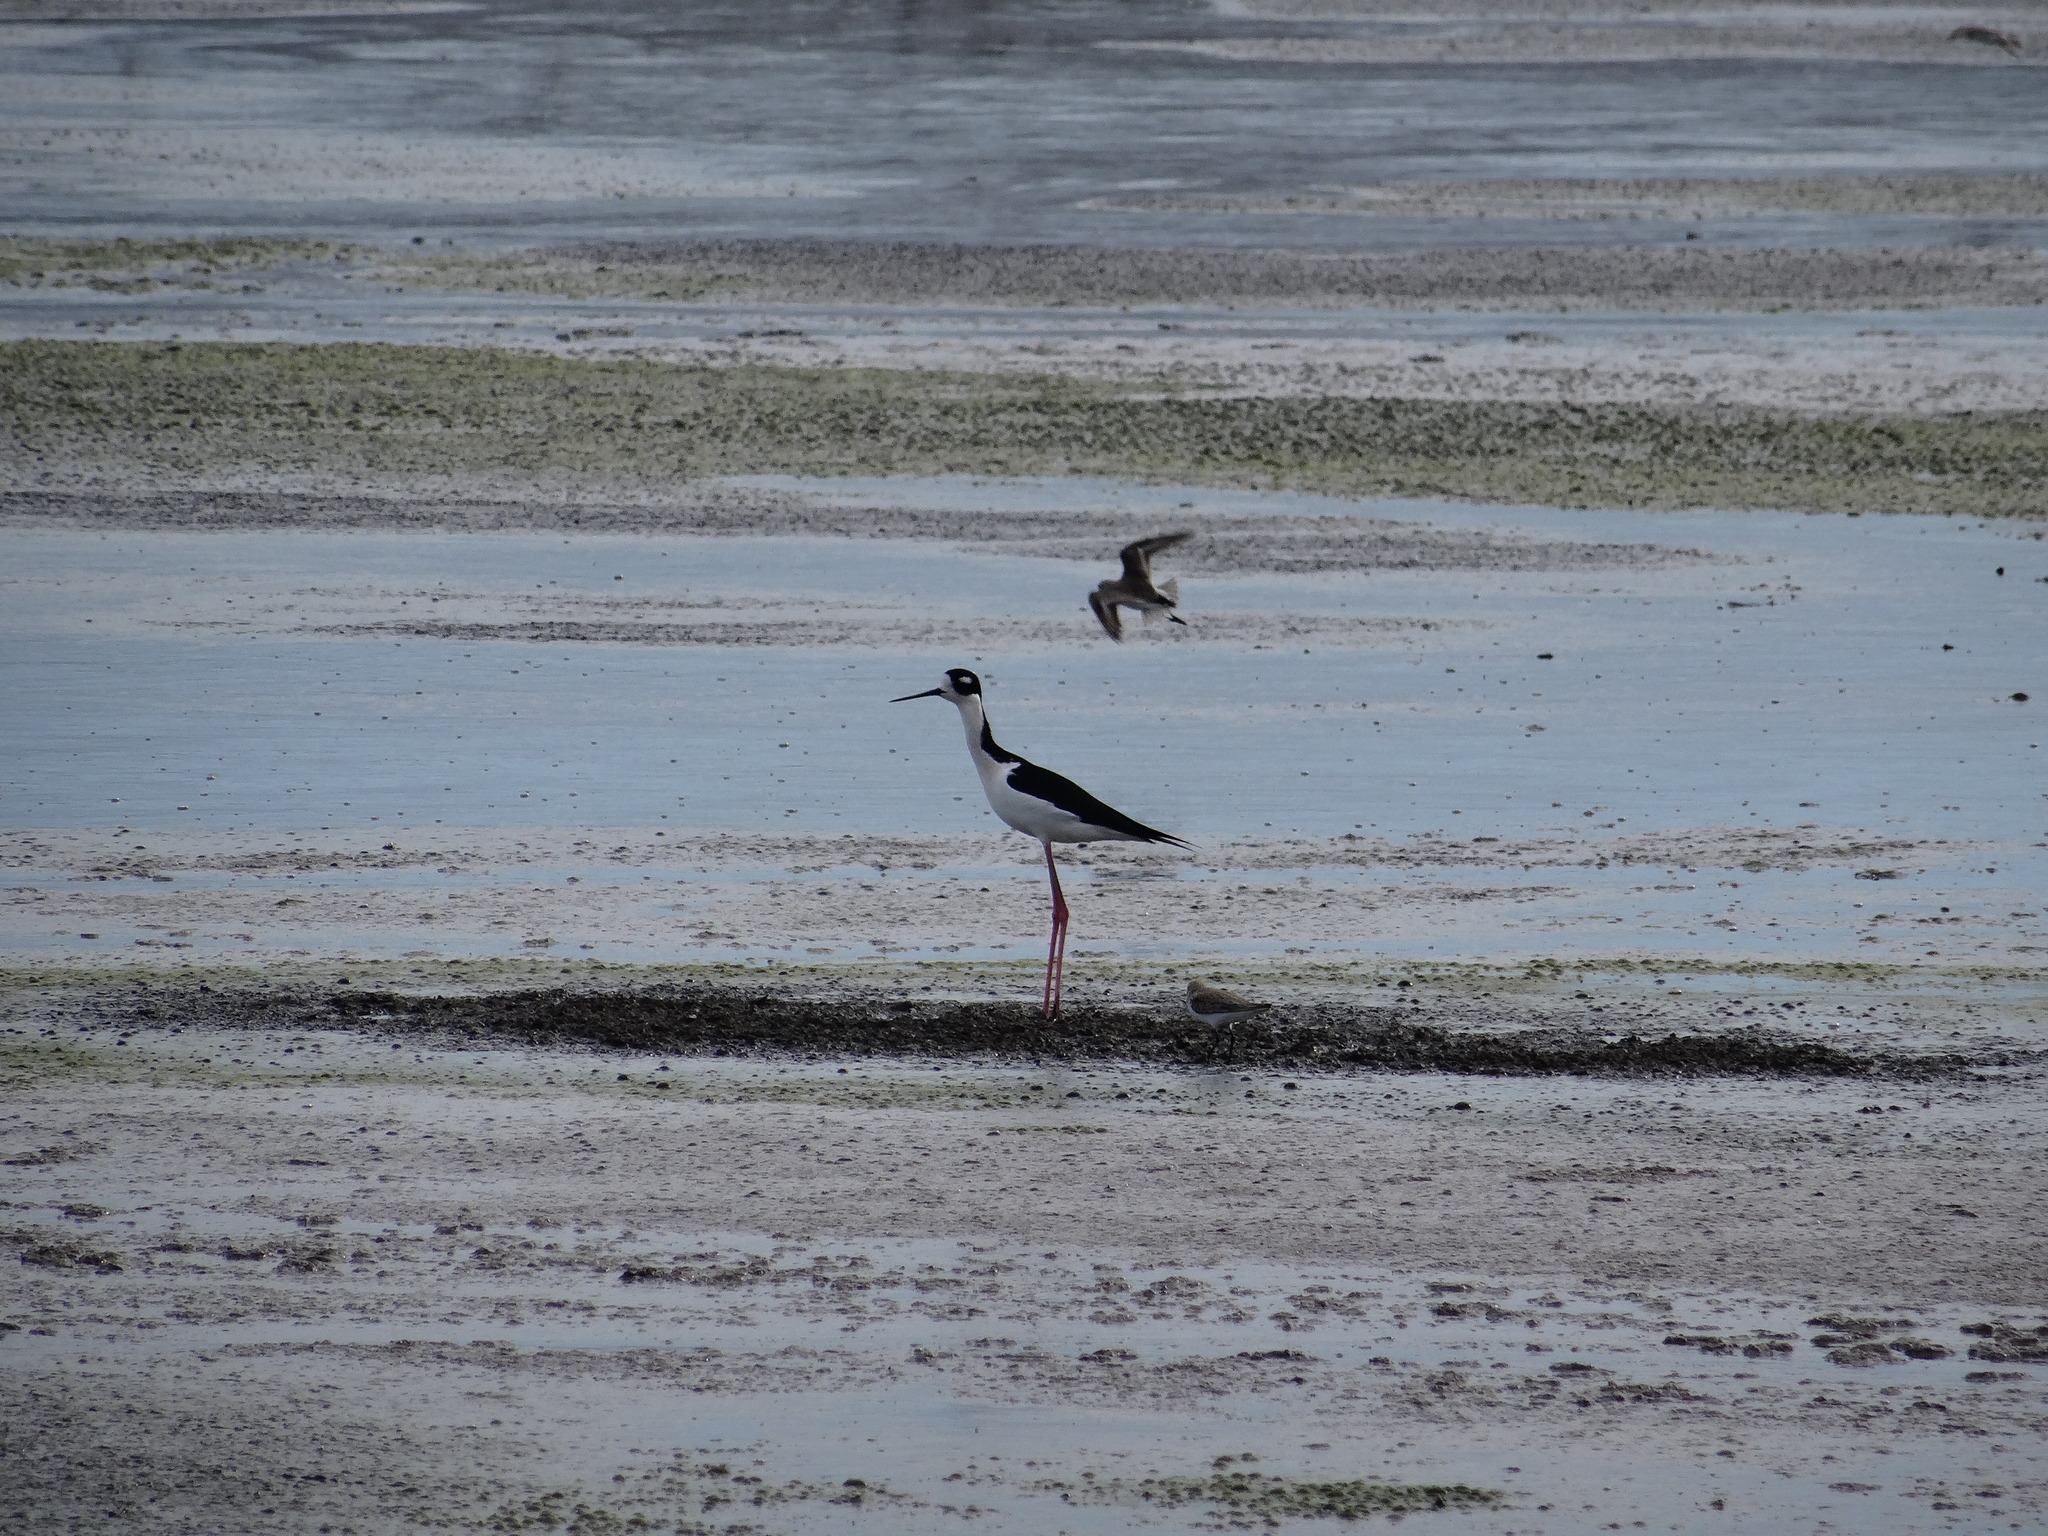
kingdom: Animalia
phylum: Chordata
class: Aves
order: Charadriiformes
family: Recurvirostridae
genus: Himantopus
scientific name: Himantopus mexicanus
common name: Black-necked stilt
